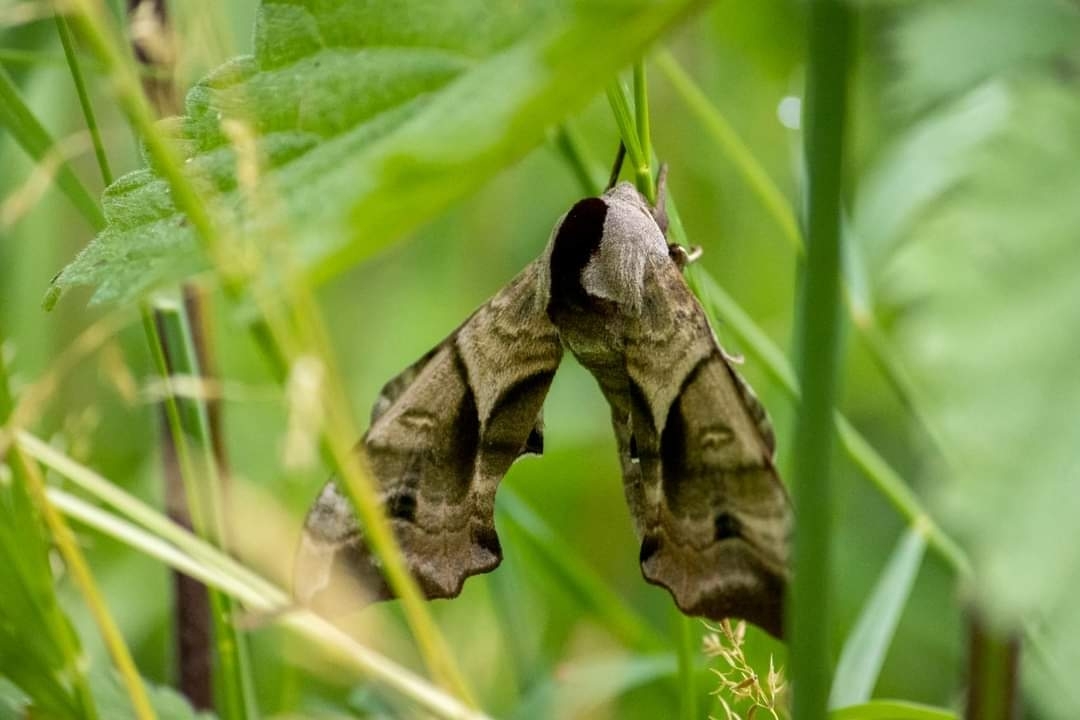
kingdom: Animalia
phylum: Arthropoda
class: Insecta
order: Lepidoptera
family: Sphingidae
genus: Smerinthus
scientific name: Smerinthus ocellata
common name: Eyed hawk-moth
